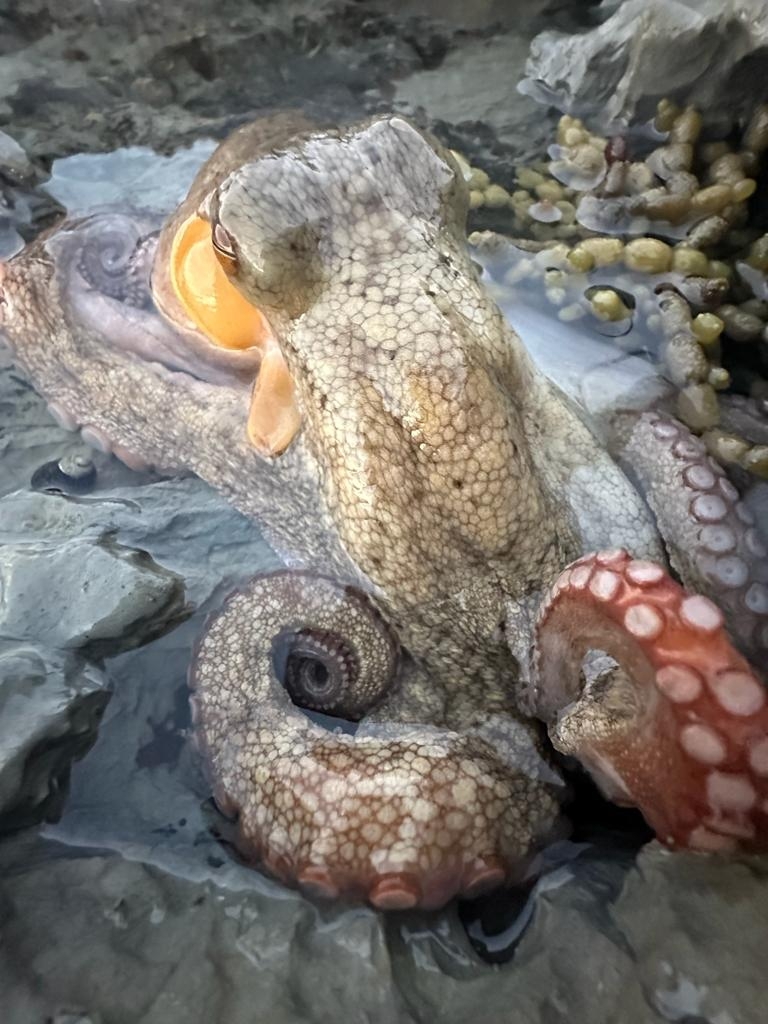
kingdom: Animalia
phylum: Mollusca
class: Cephalopoda
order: Octopoda
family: Octopodidae
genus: Octopus
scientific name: Octopus tetricus
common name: Sydney octopus
